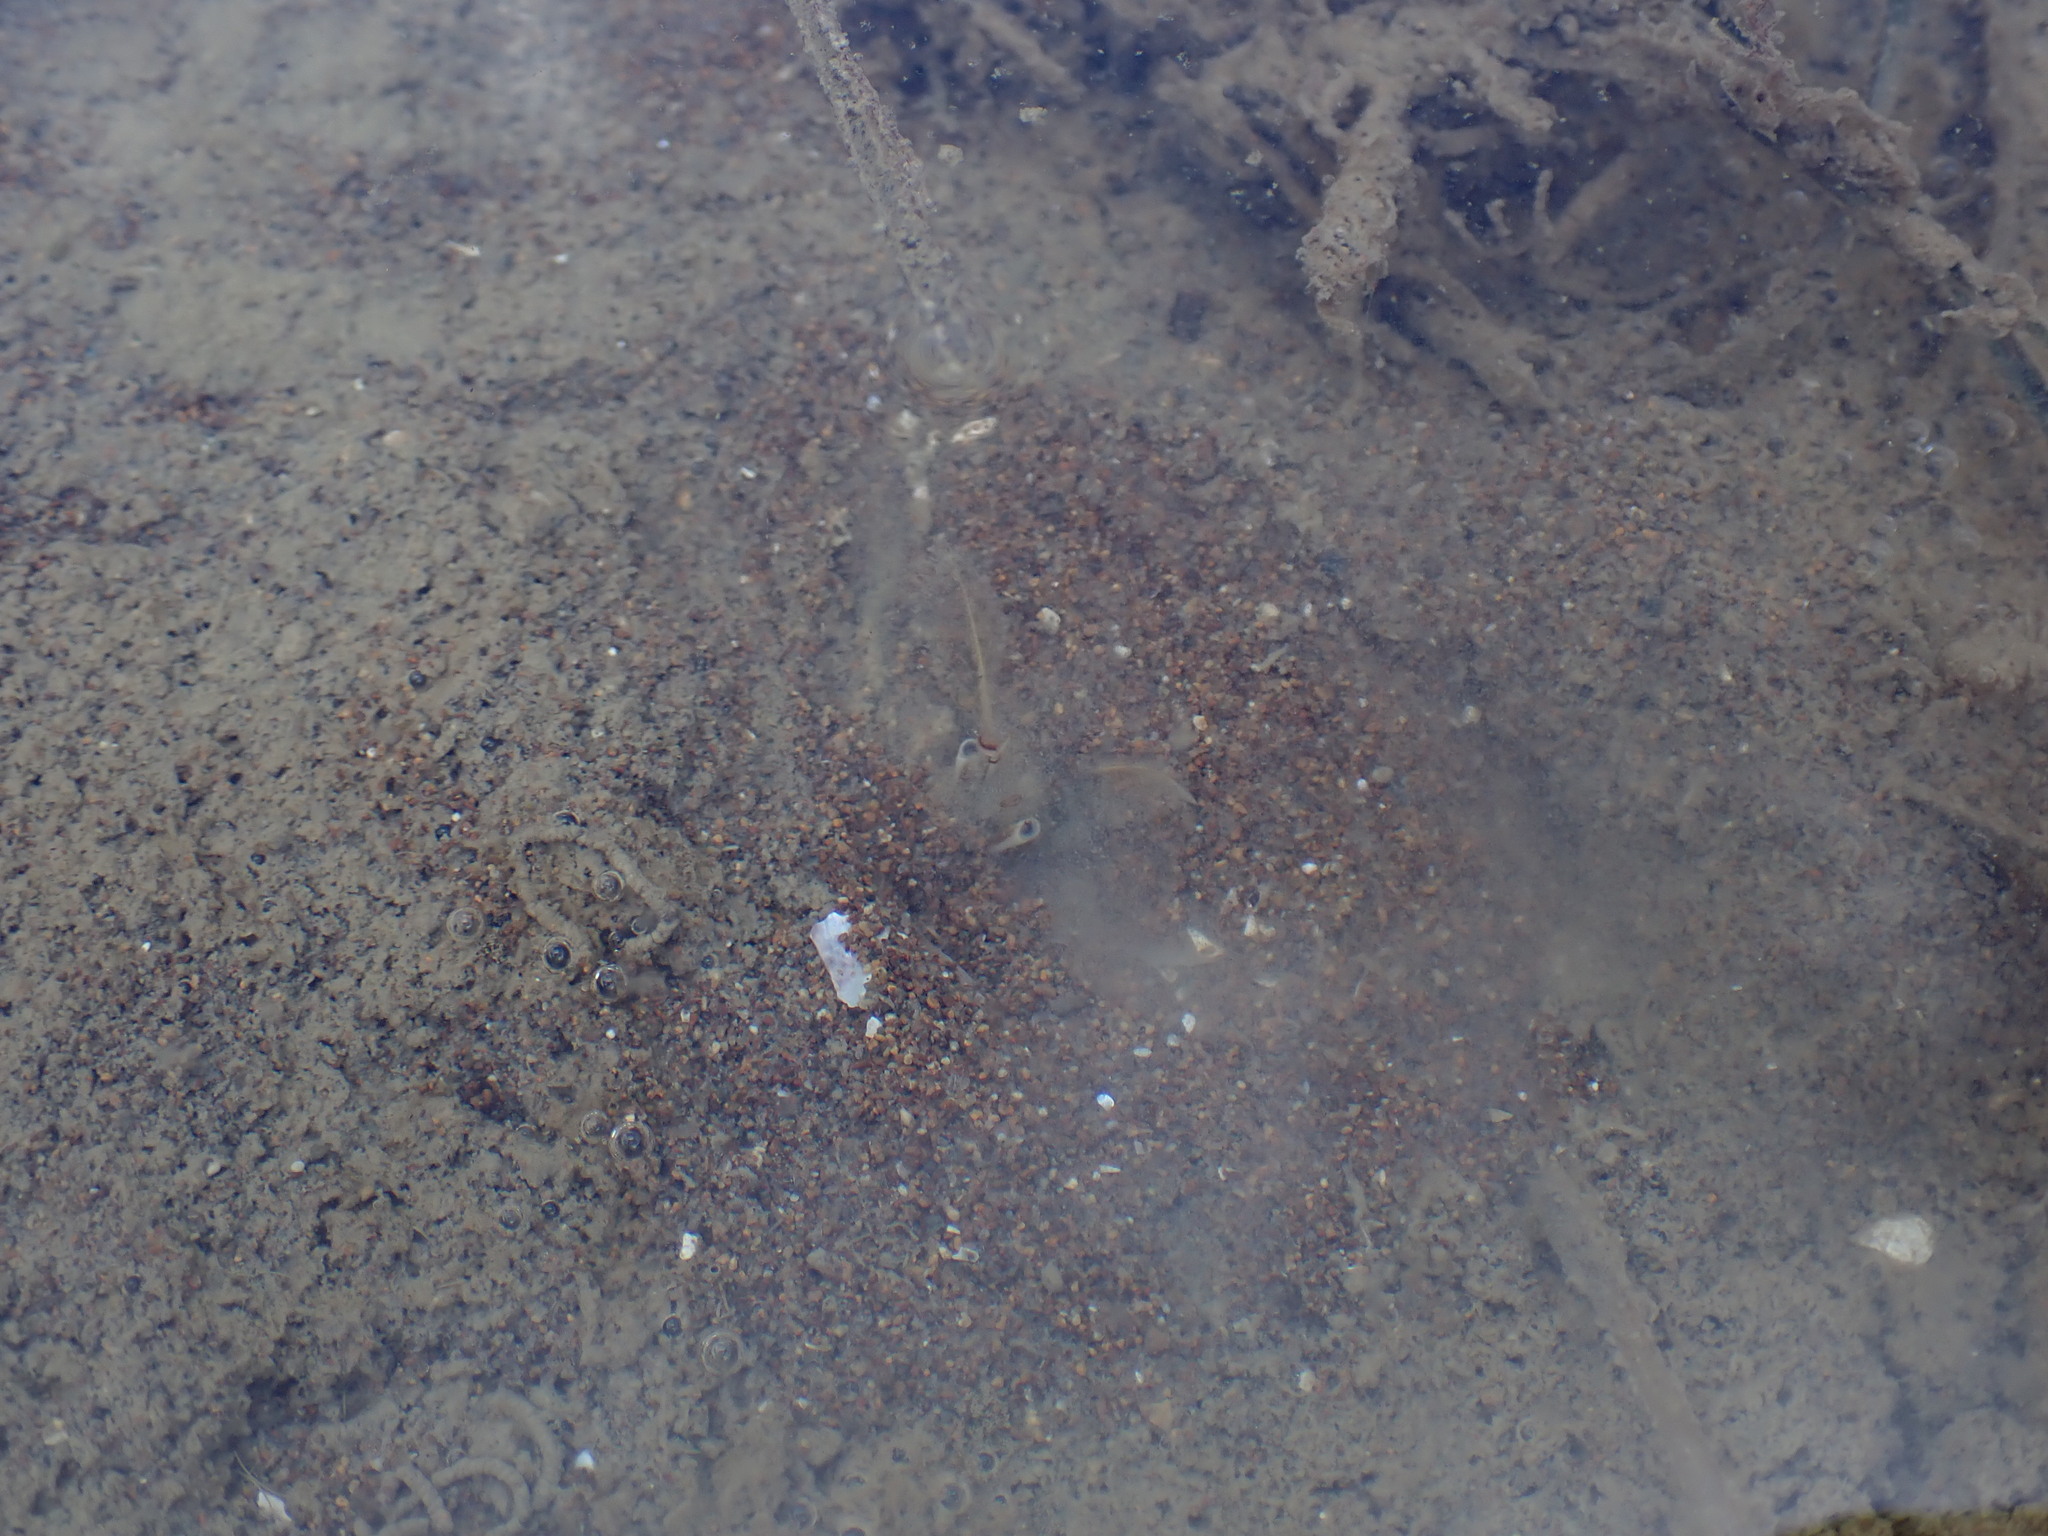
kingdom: Animalia
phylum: Arthropoda
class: Malacostraca
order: Decapoda
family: Diogenidae
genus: Areopaguristes
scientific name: Areopaguristes setosus
